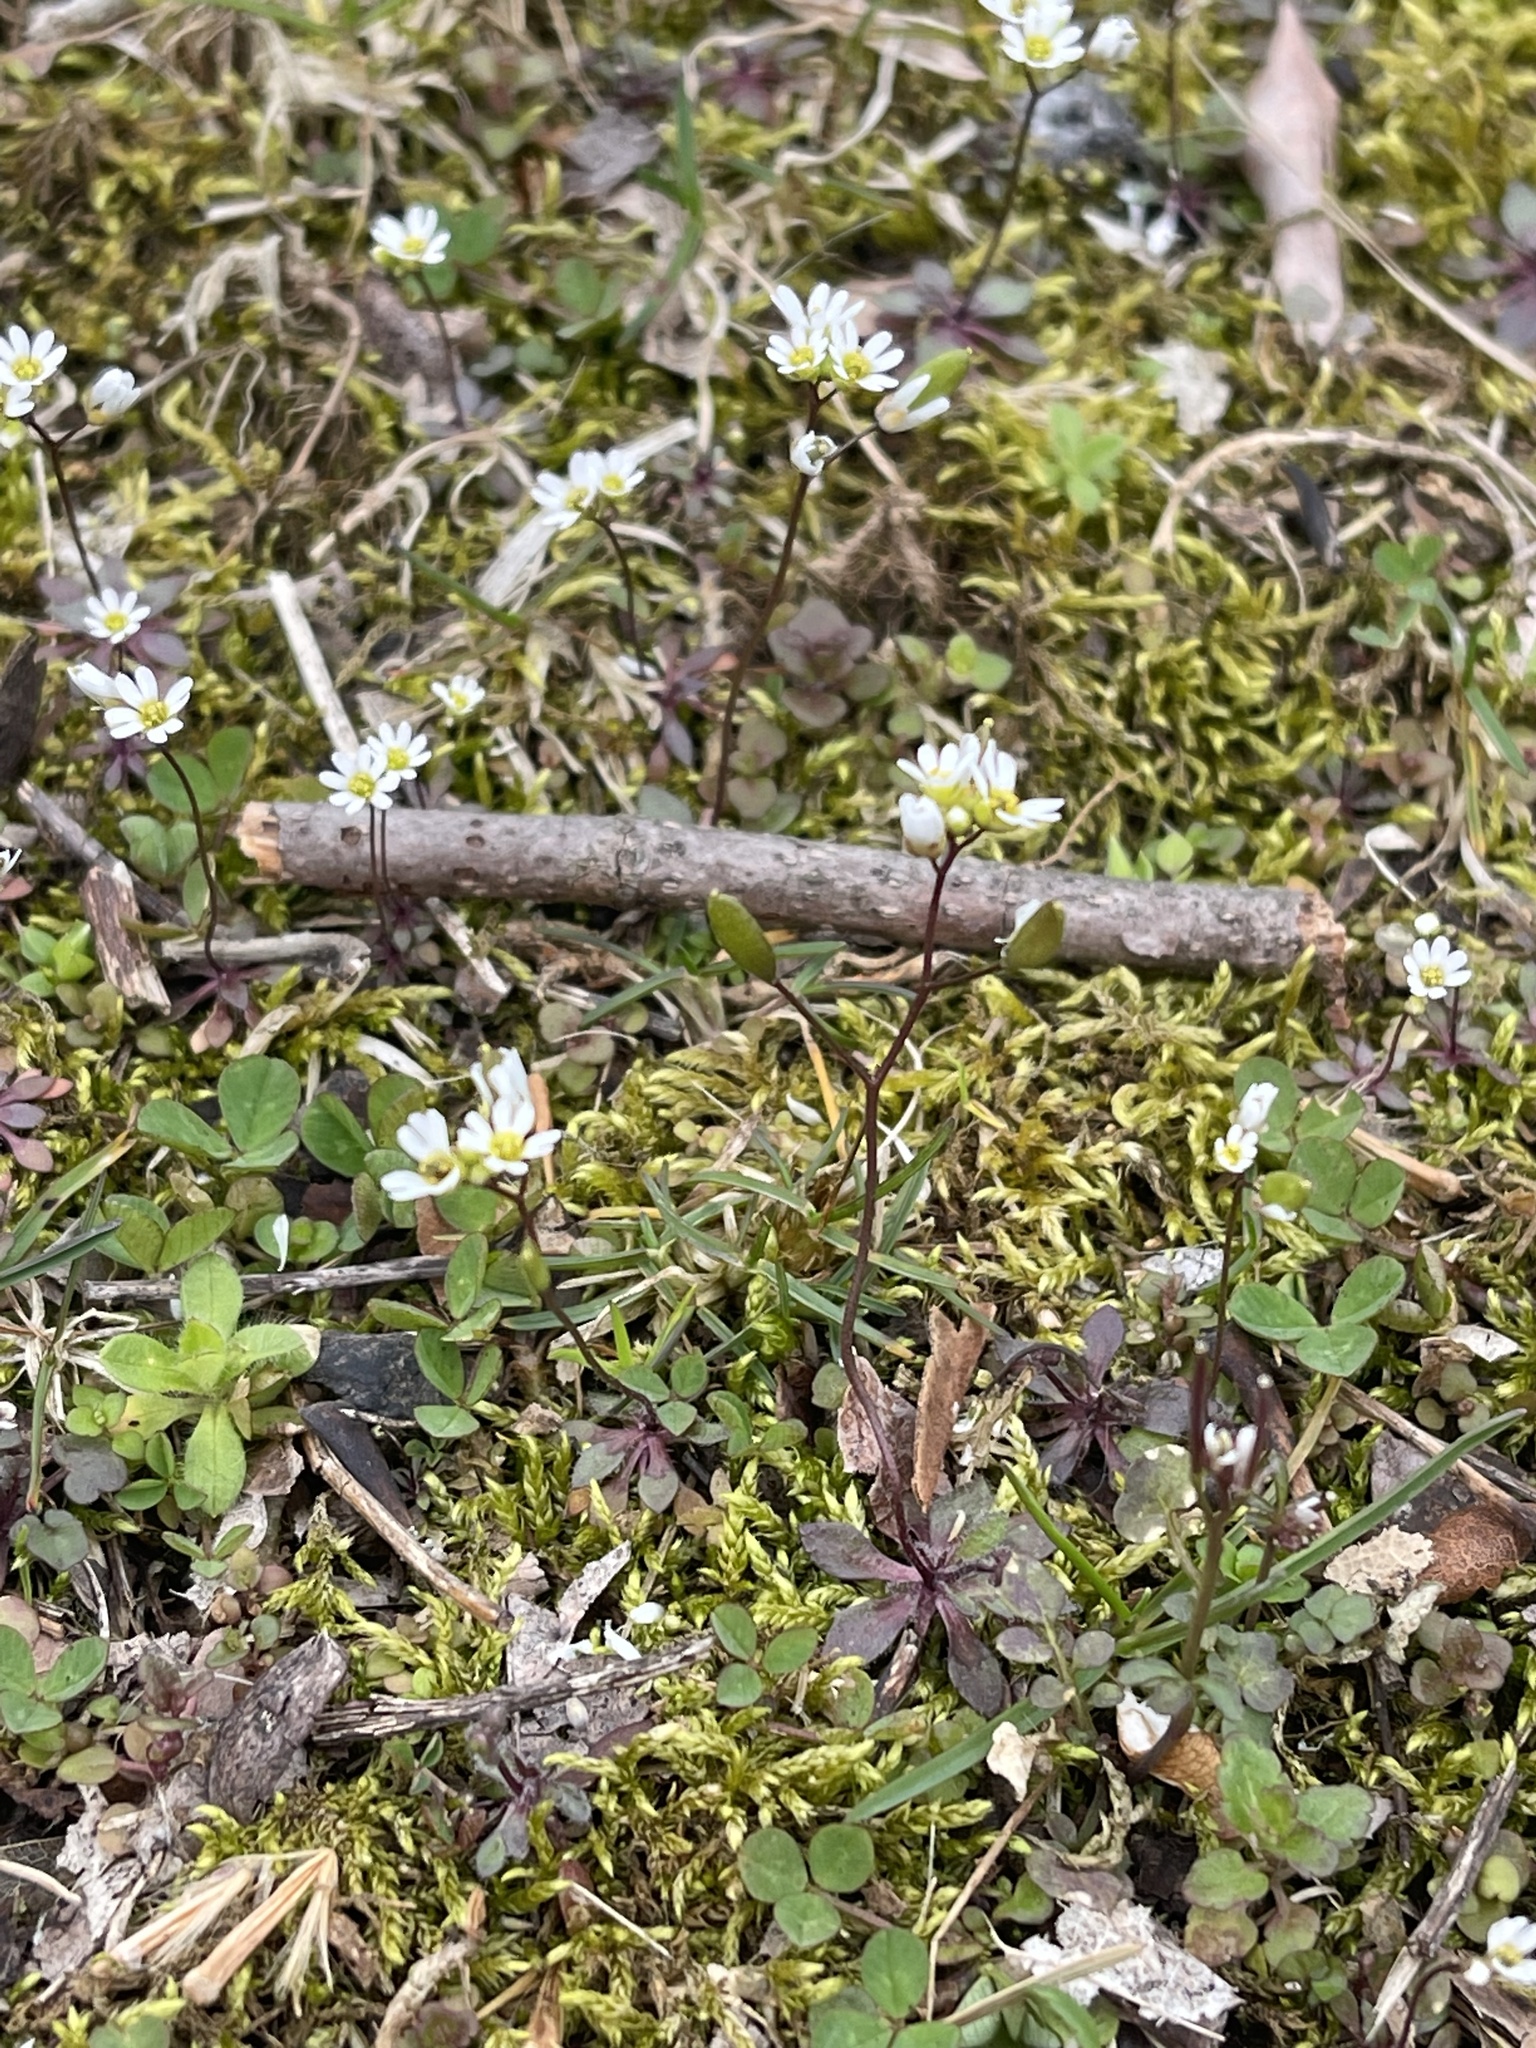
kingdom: Plantae
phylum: Tracheophyta
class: Magnoliopsida
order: Brassicales
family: Brassicaceae
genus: Draba
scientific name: Draba verna
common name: Spring draba
